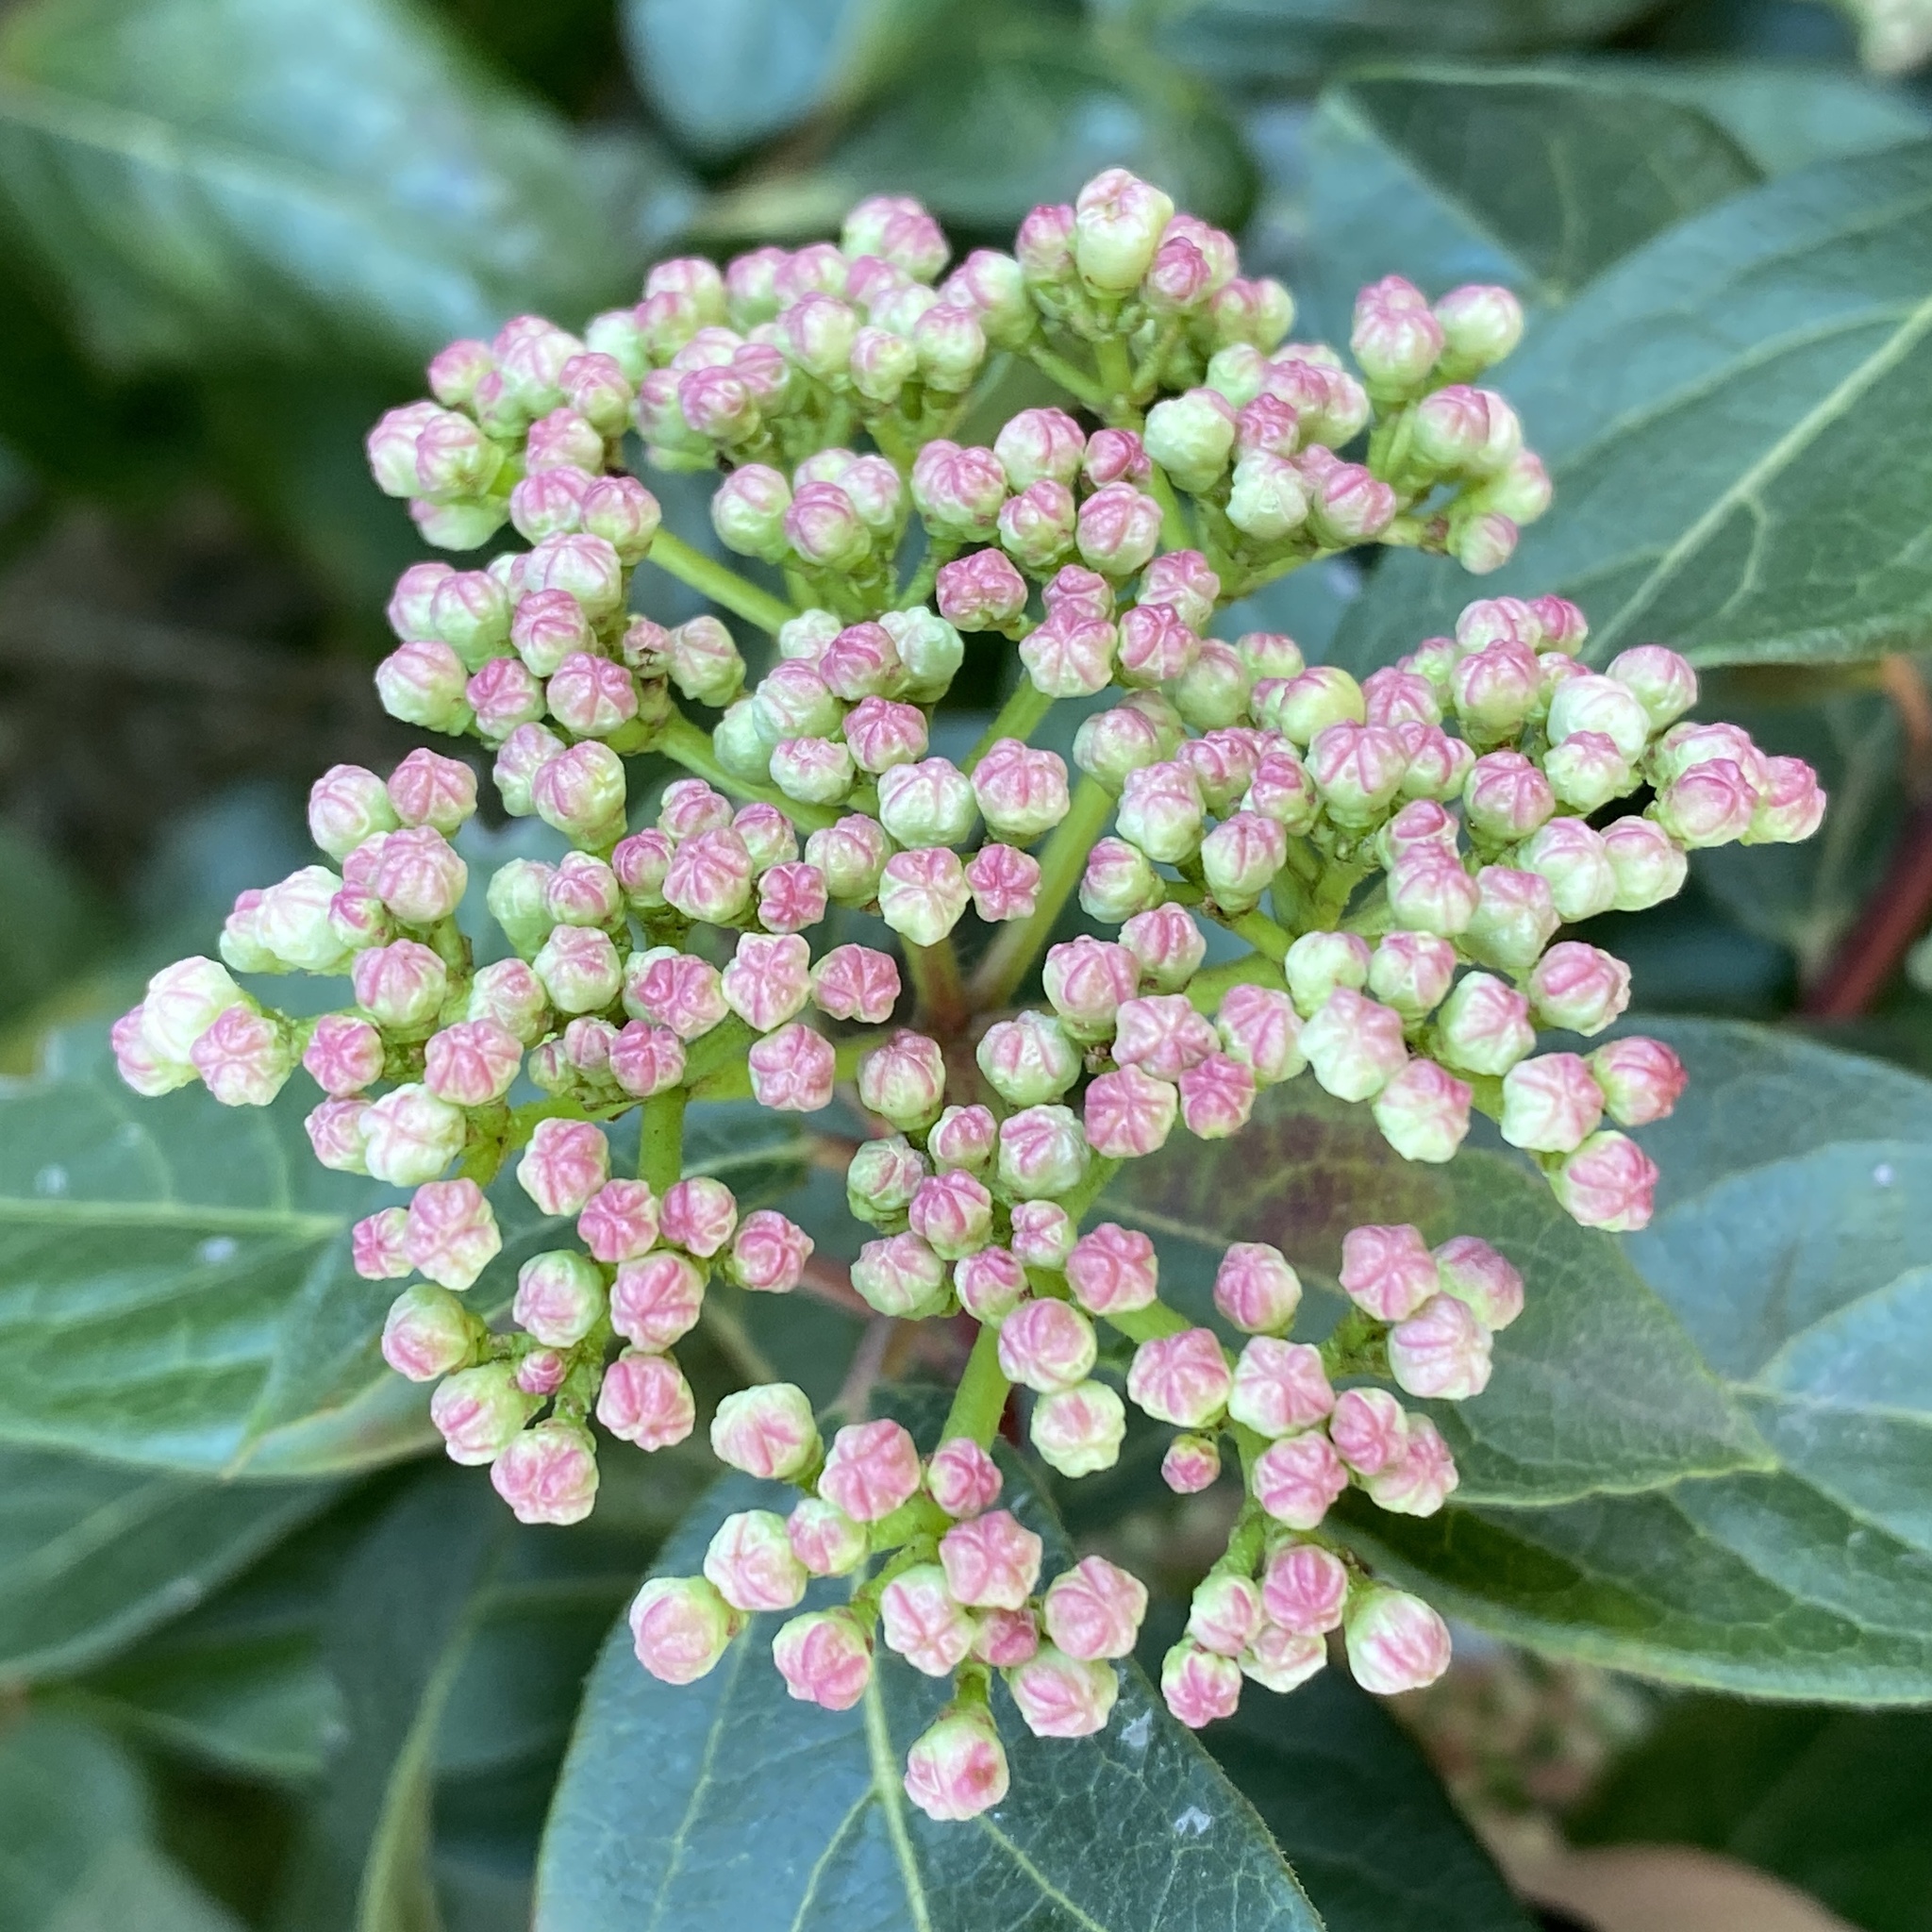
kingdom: Plantae
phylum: Tracheophyta
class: Magnoliopsida
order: Dipsacales
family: Viburnaceae
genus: Viburnum
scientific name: Viburnum tinus
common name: Laurustinus
